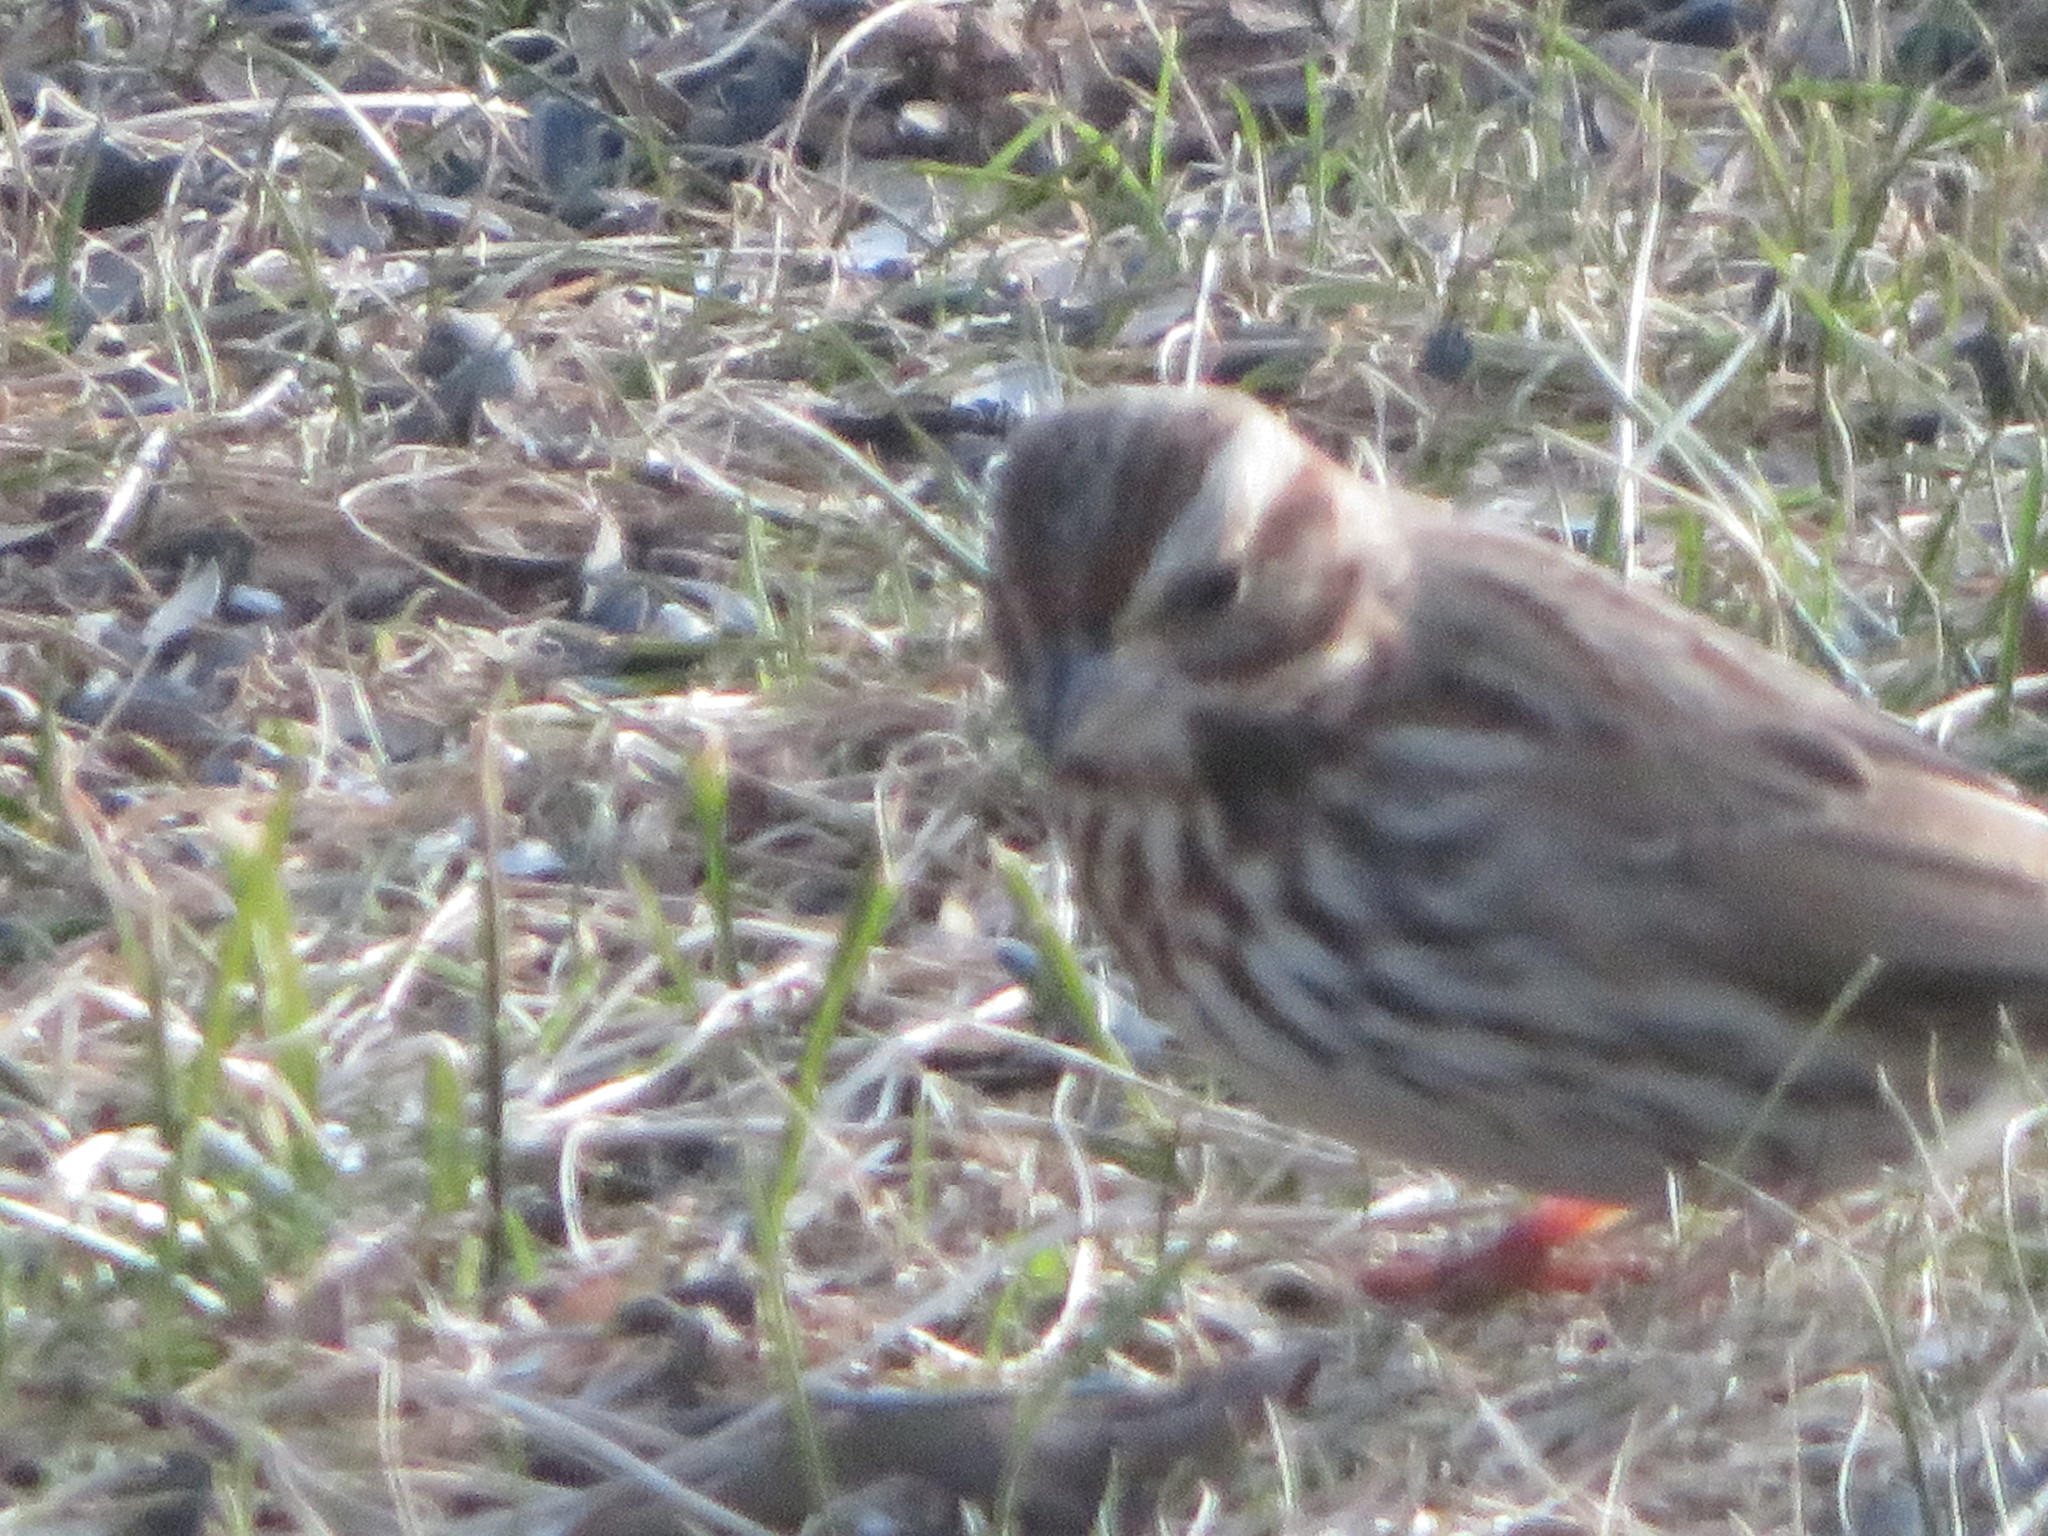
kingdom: Animalia
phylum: Chordata
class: Aves
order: Passeriformes
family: Passerellidae
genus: Melospiza
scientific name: Melospiza melodia
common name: Song sparrow
